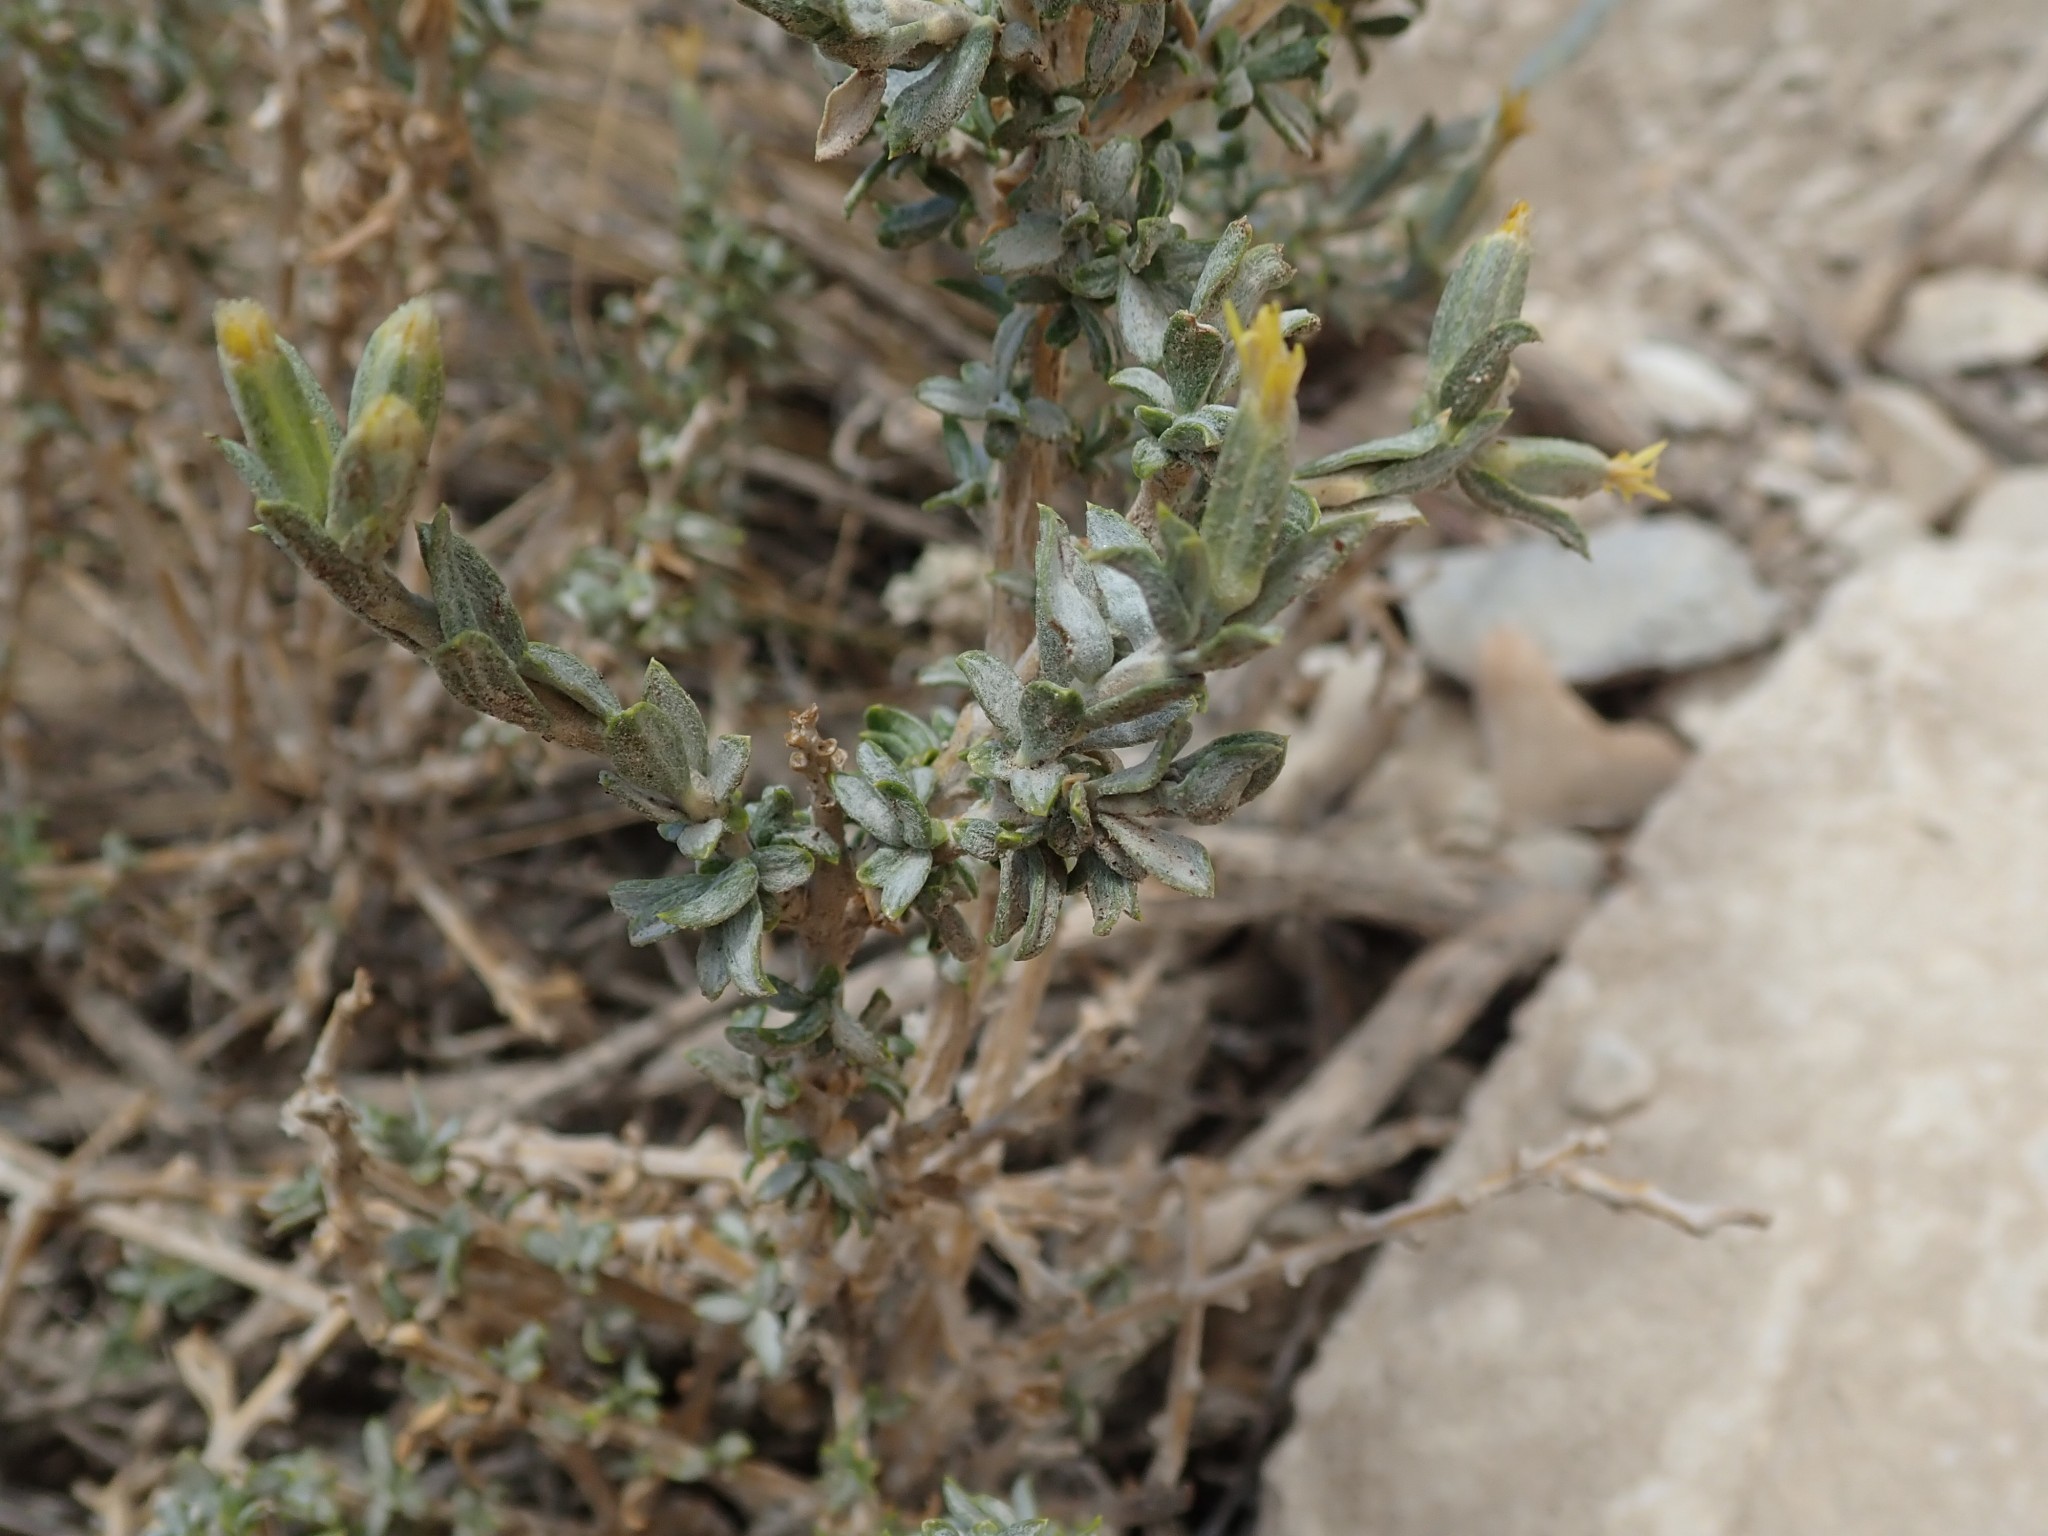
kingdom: Plantae
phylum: Tracheophyta
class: Magnoliopsida
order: Asterales
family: Asteraceae
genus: Tetradymia
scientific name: Tetradymia canescens
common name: Spineless horsebrush
